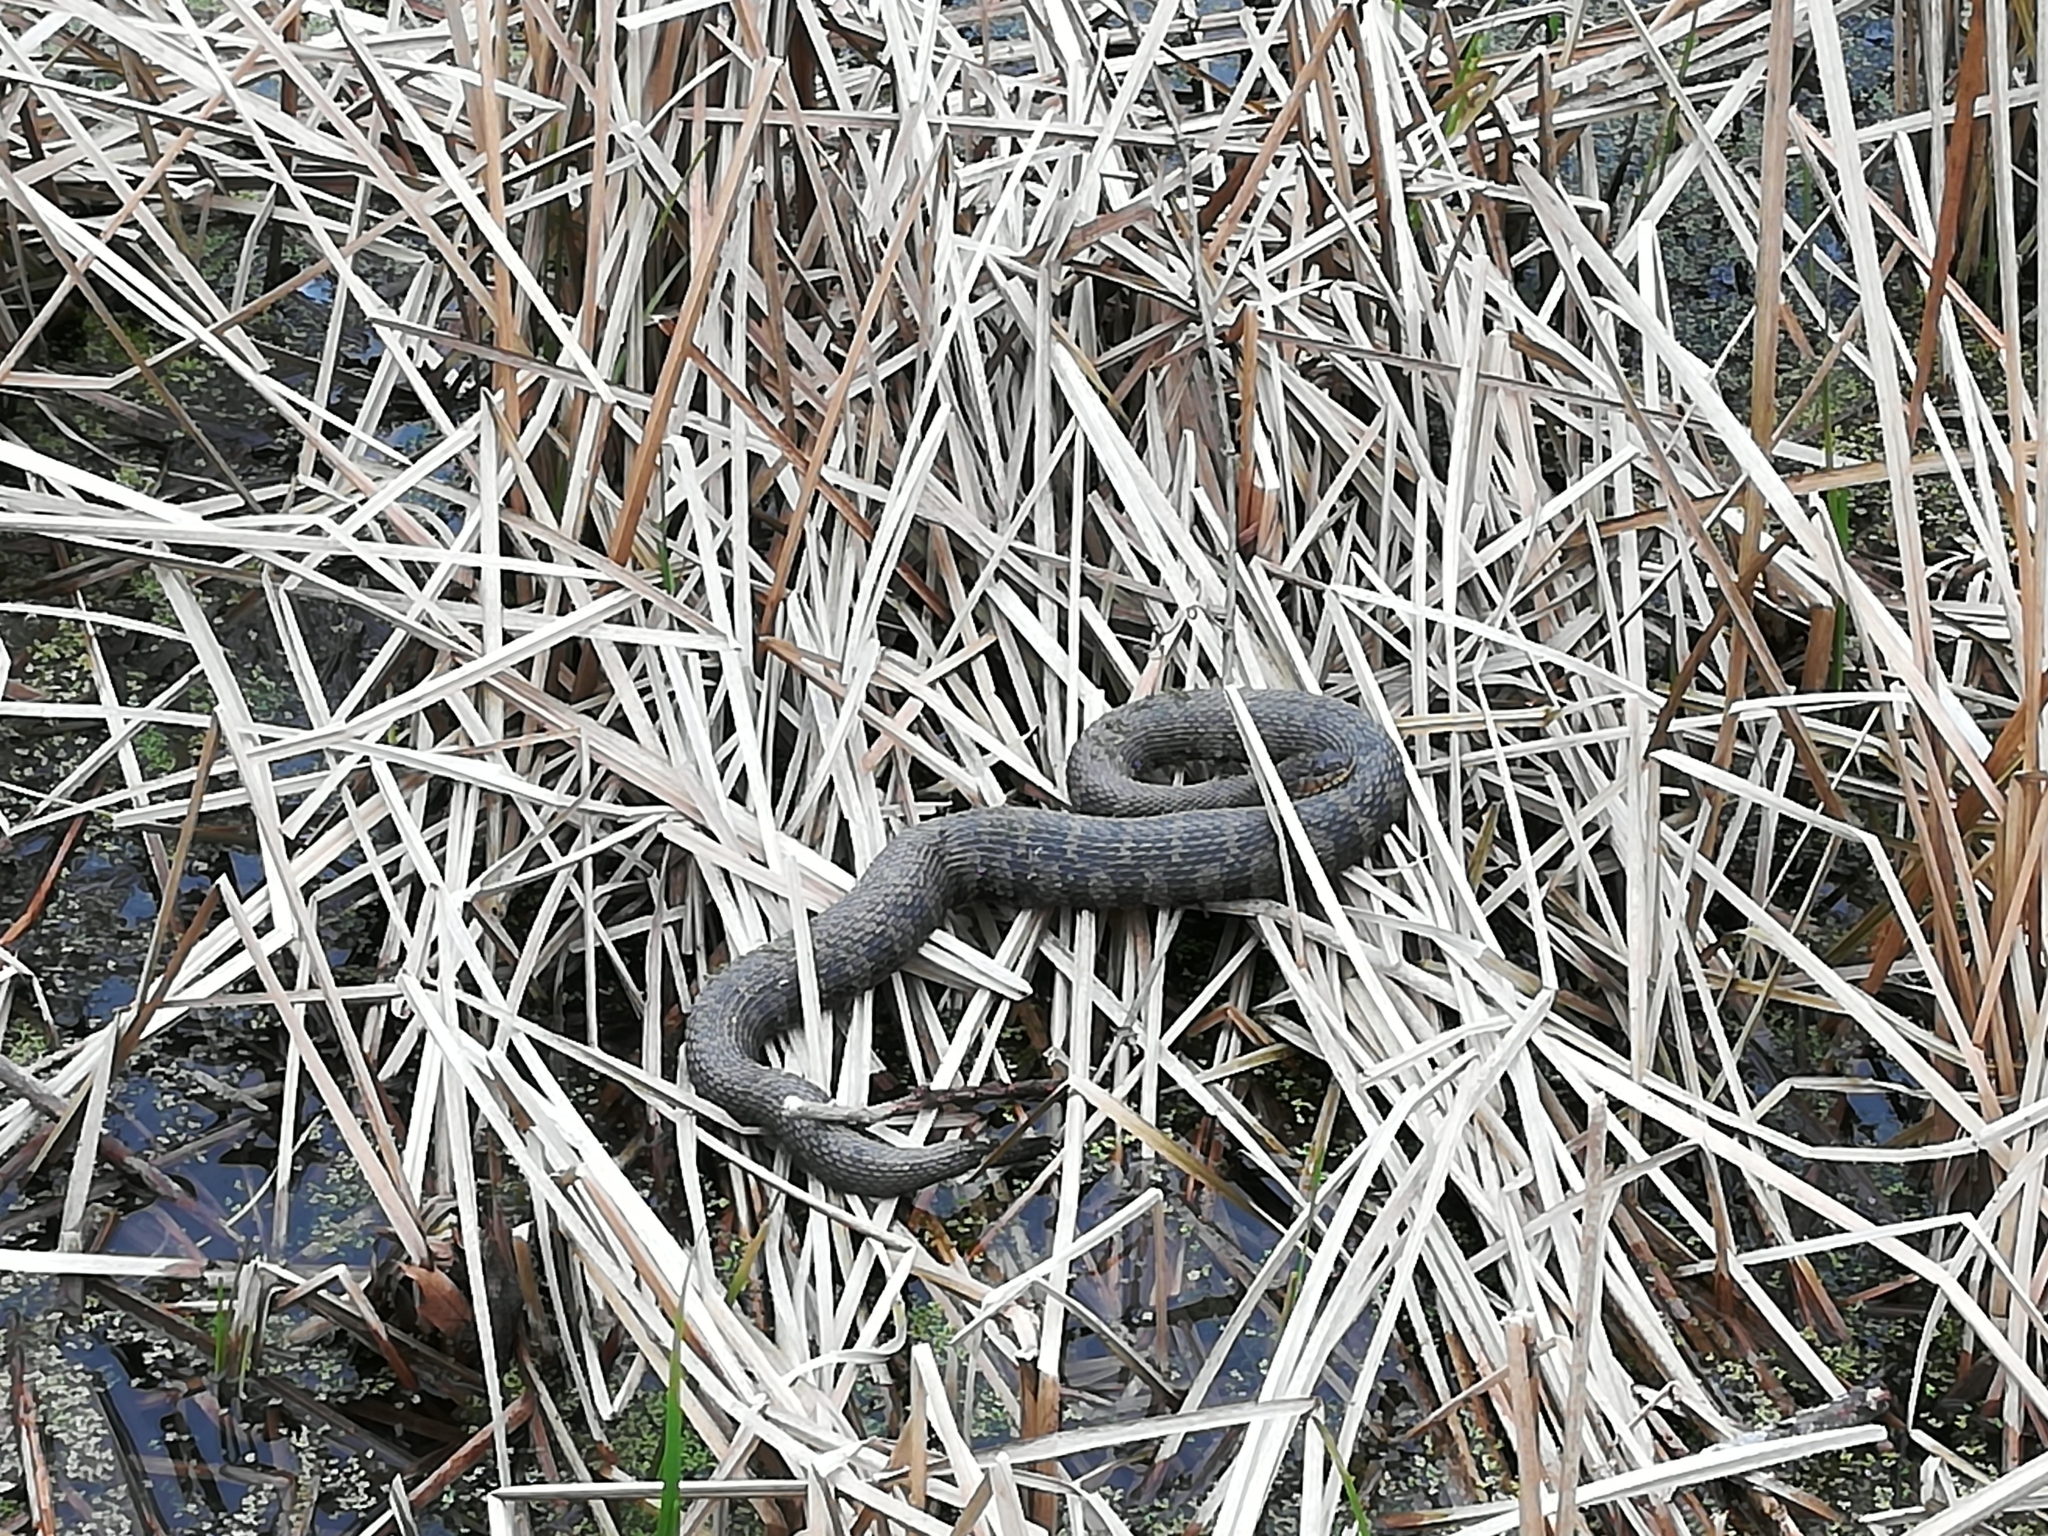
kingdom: Animalia
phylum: Chordata
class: Squamata
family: Colubridae
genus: Nerodia
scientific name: Nerodia sipedon
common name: Northern water snake
